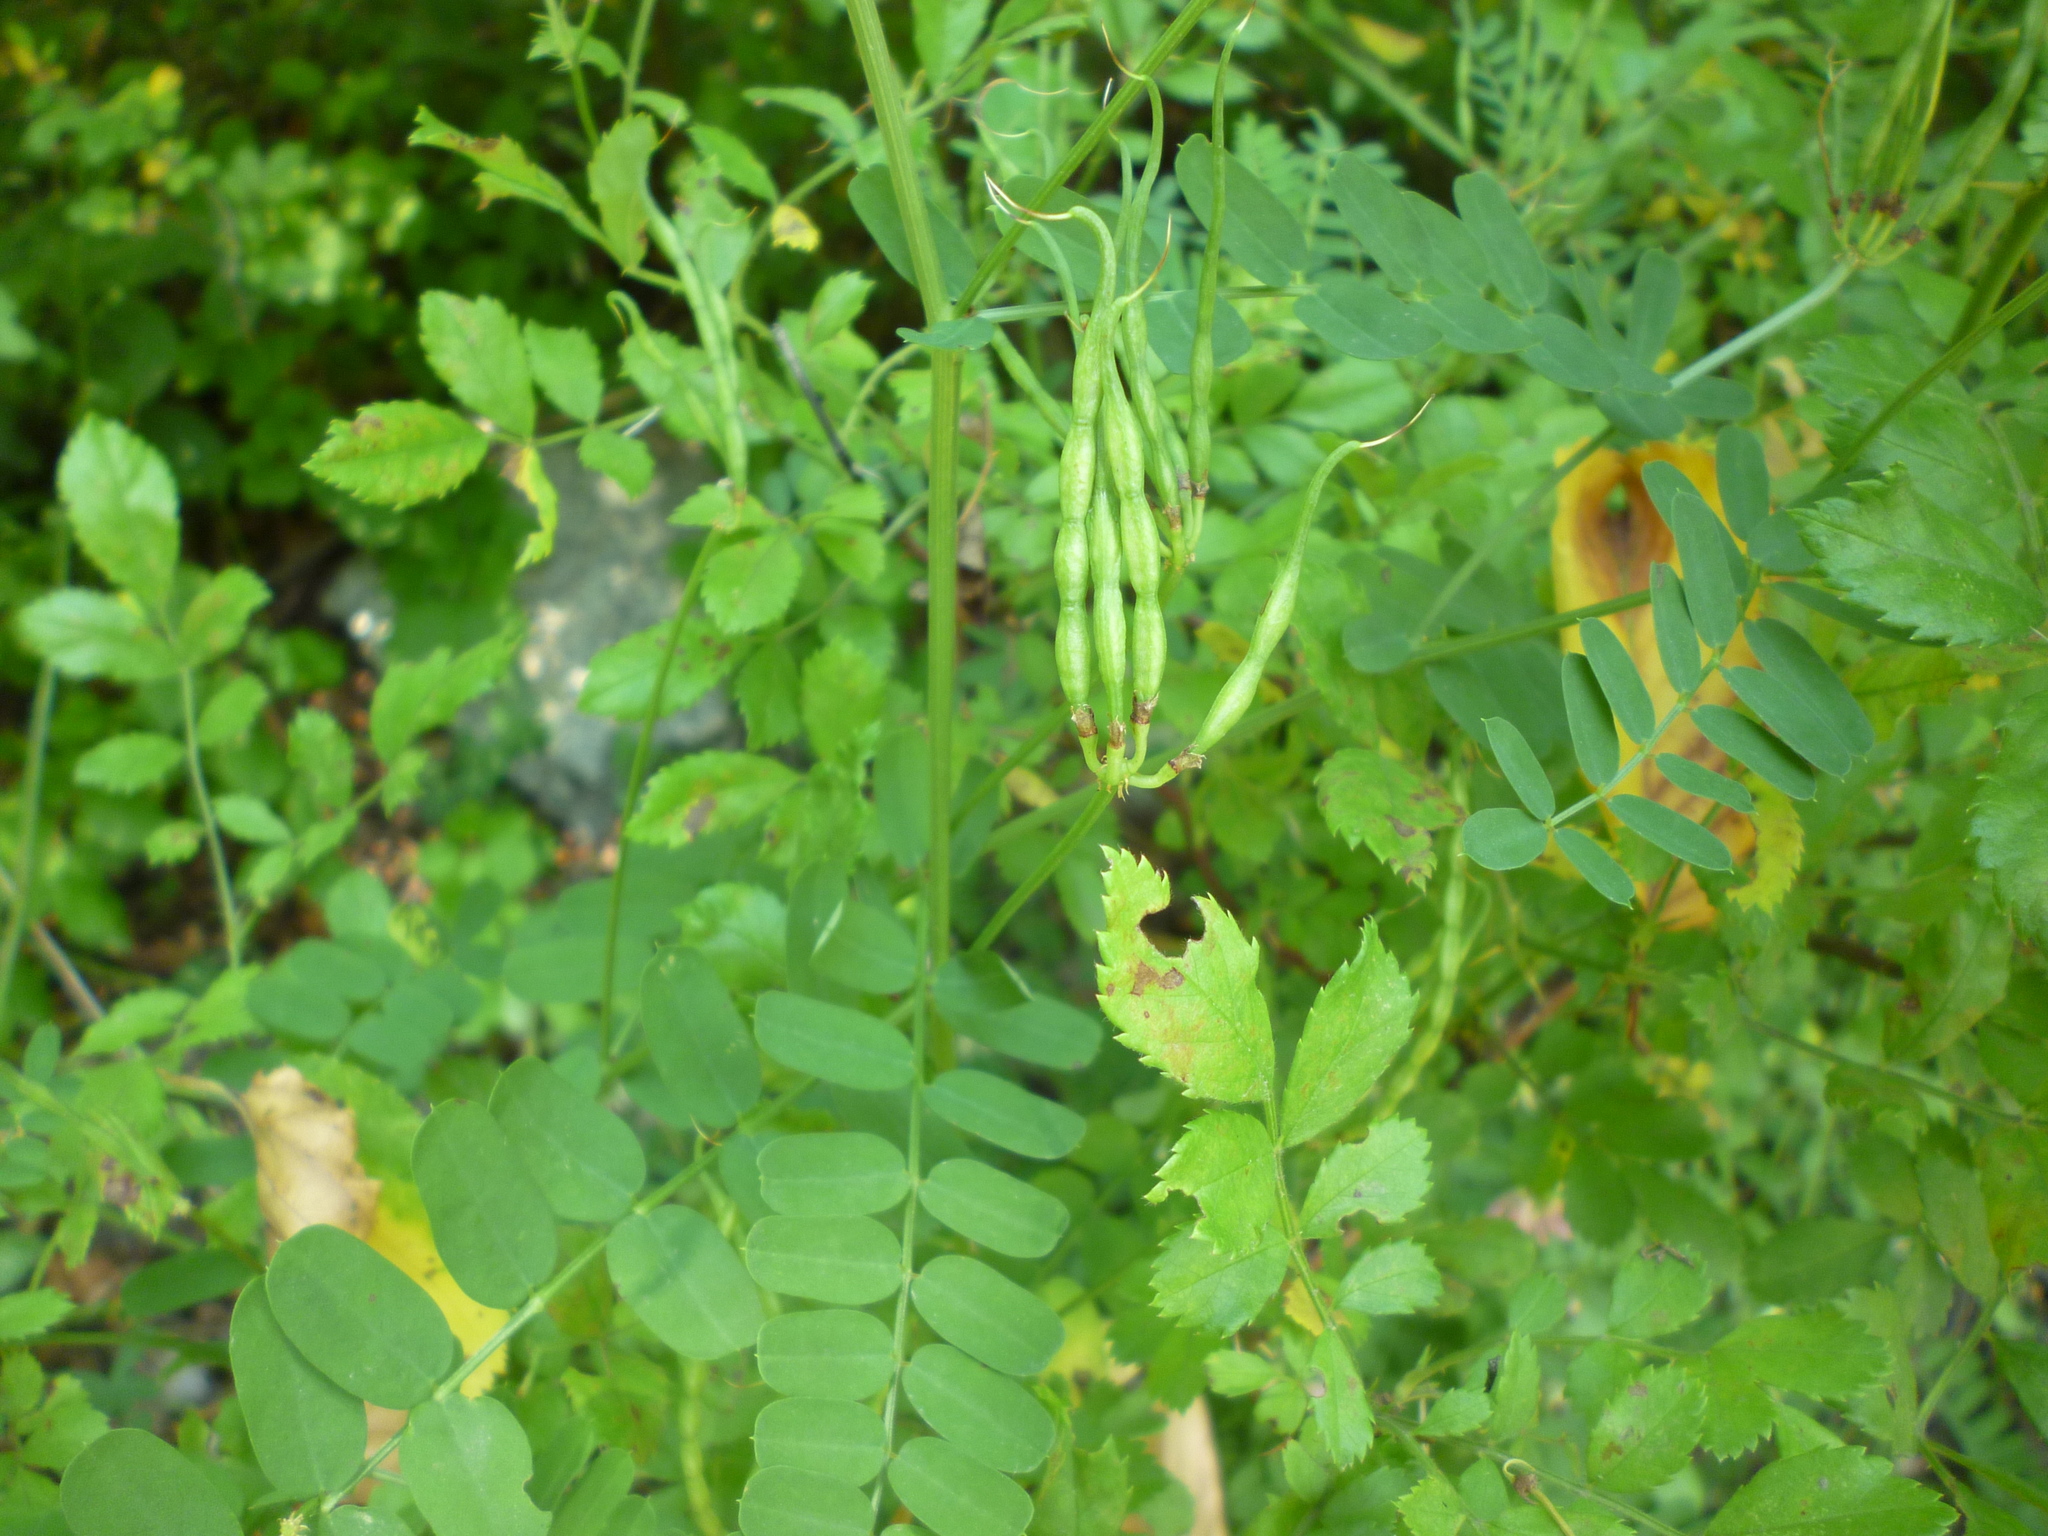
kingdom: Plantae
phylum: Tracheophyta
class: Magnoliopsida
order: Fabales
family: Fabaceae
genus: Coronilla
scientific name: Coronilla varia
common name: Crownvetch
